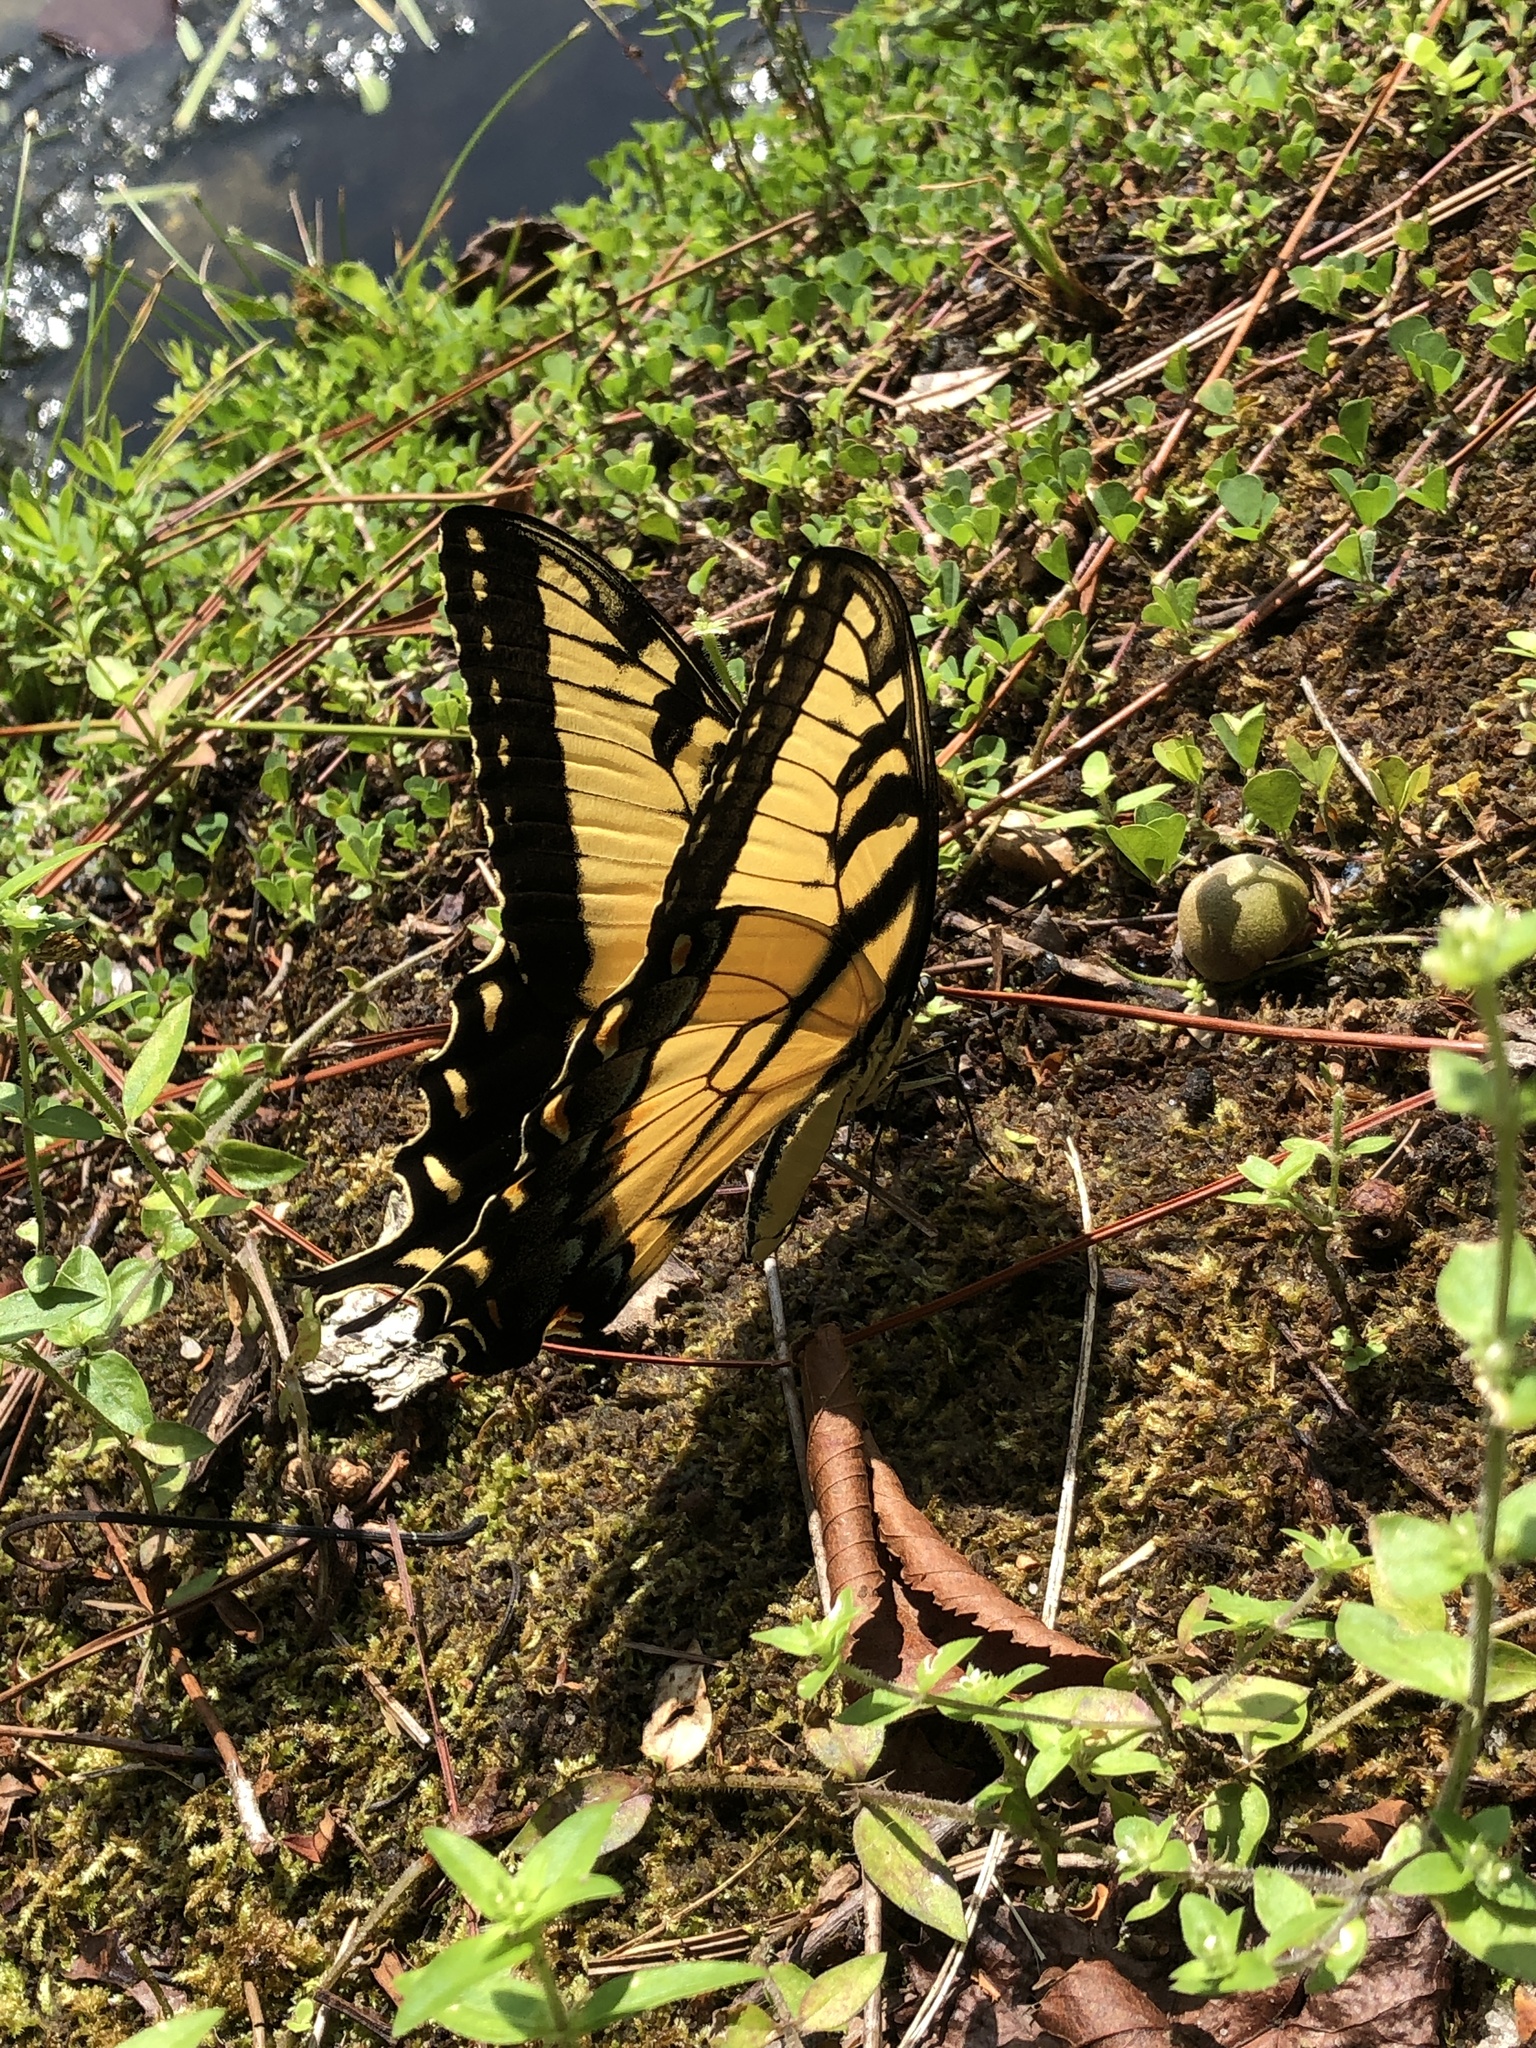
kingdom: Animalia
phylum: Arthropoda
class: Insecta
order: Lepidoptera
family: Papilionidae
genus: Papilio
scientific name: Papilio glaucus
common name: Tiger swallowtail
